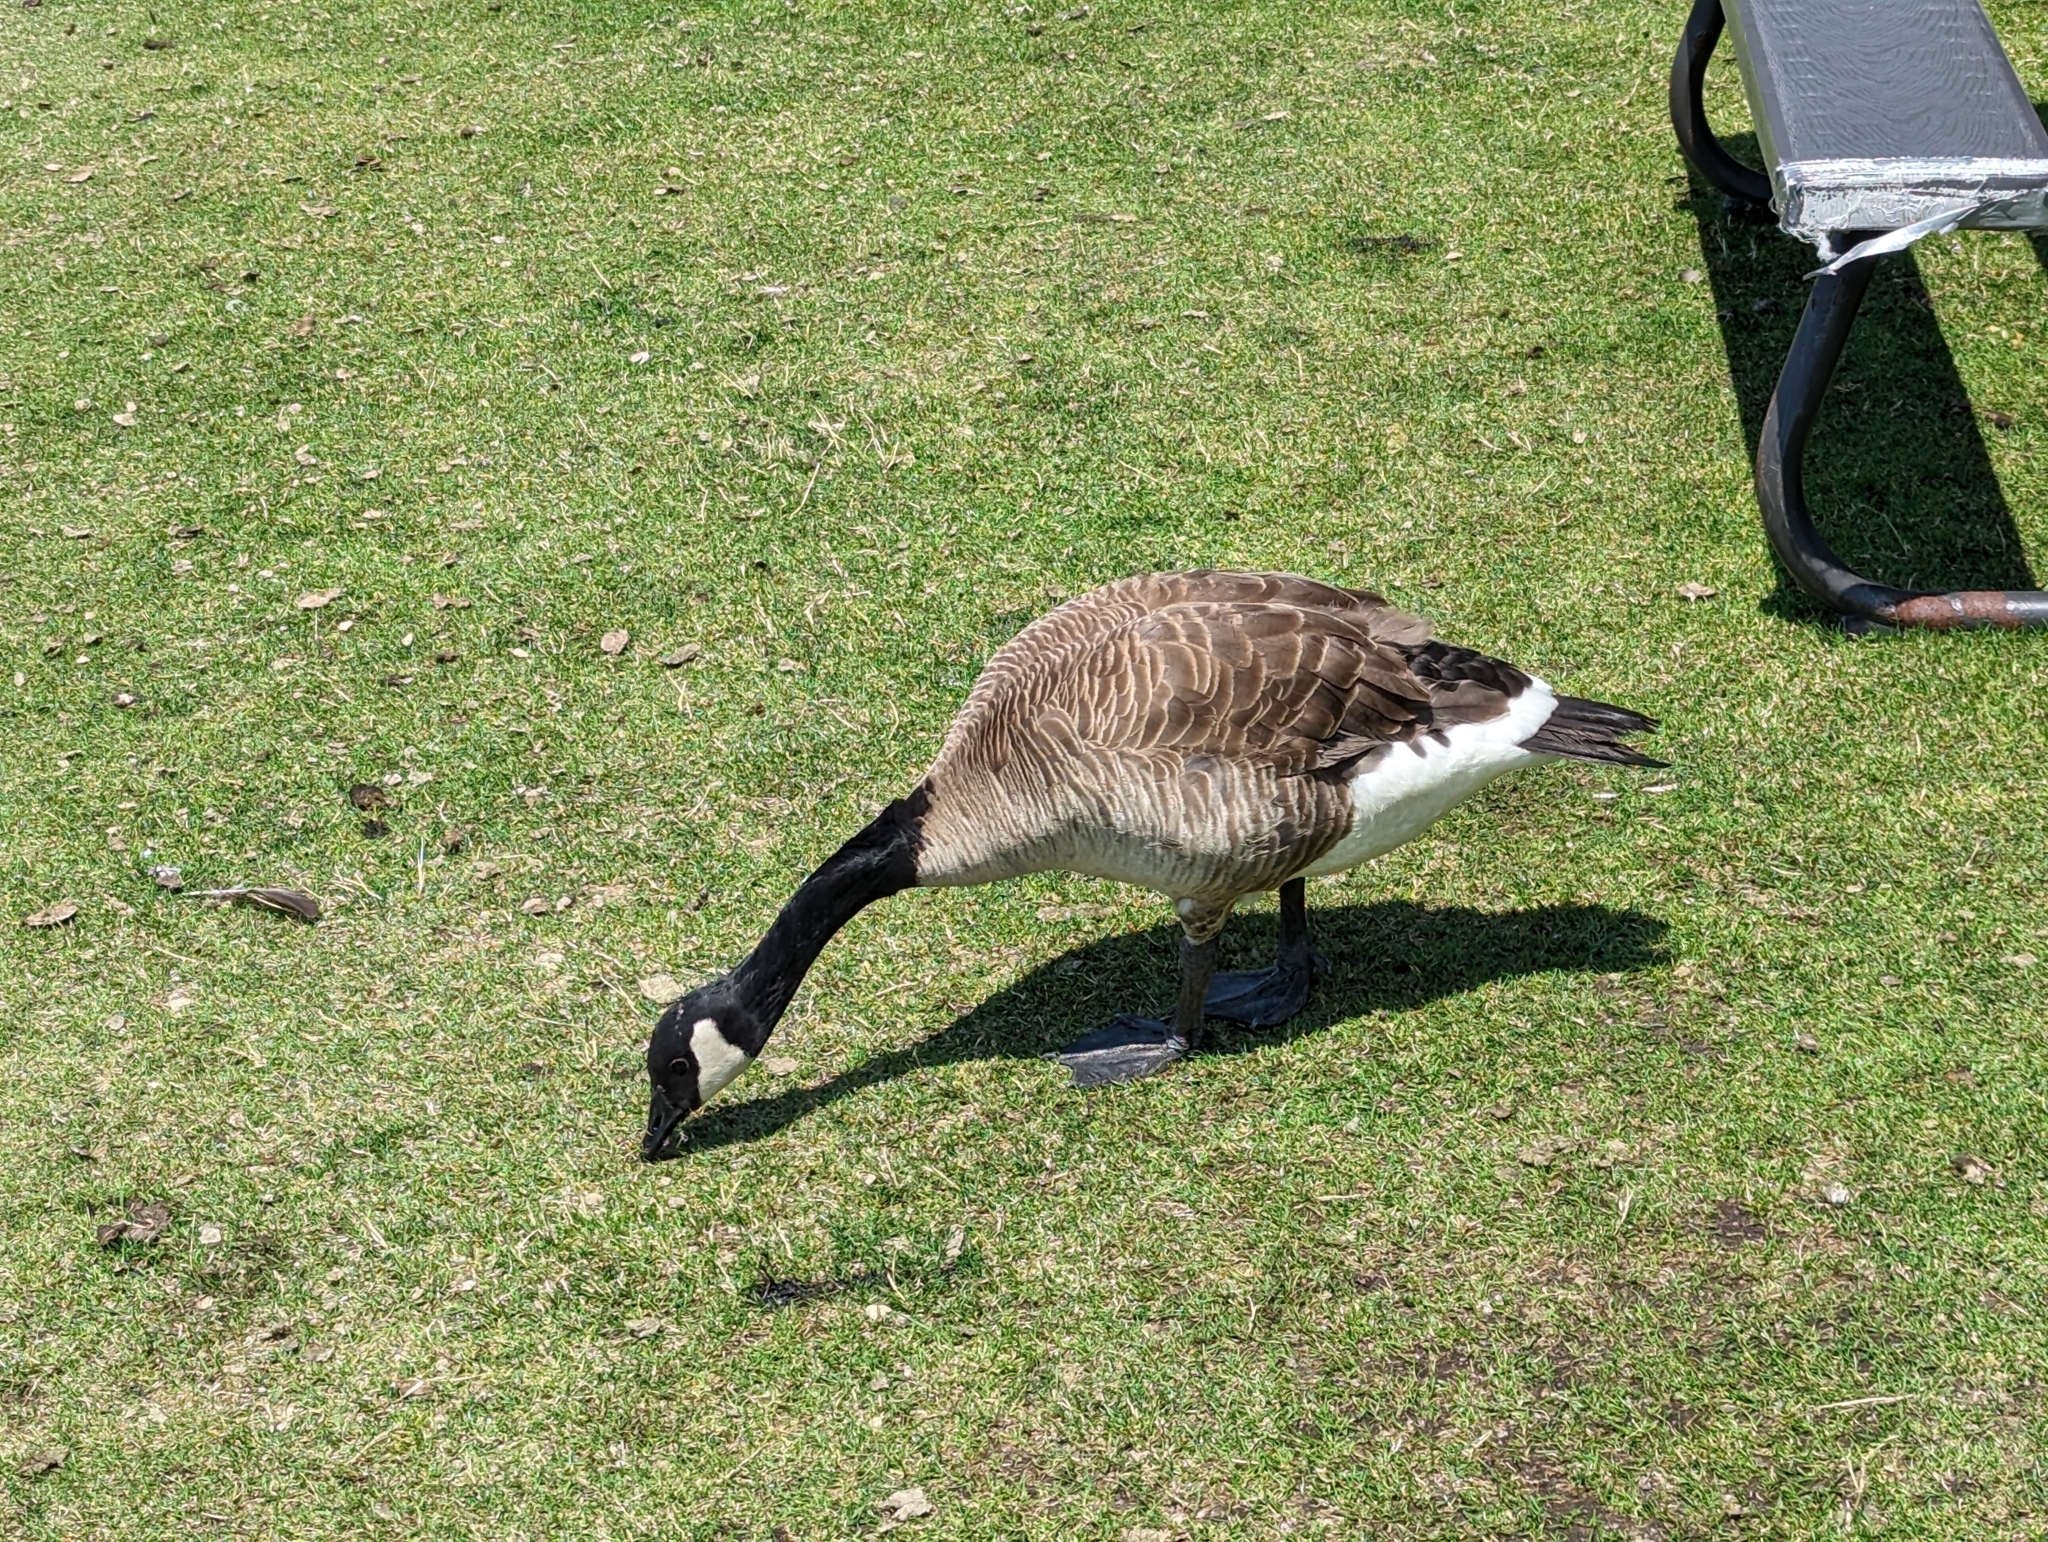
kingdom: Animalia
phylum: Chordata
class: Aves
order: Anseriformes
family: Anatidae
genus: Branta
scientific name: Branta canadensis
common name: Canada goose
